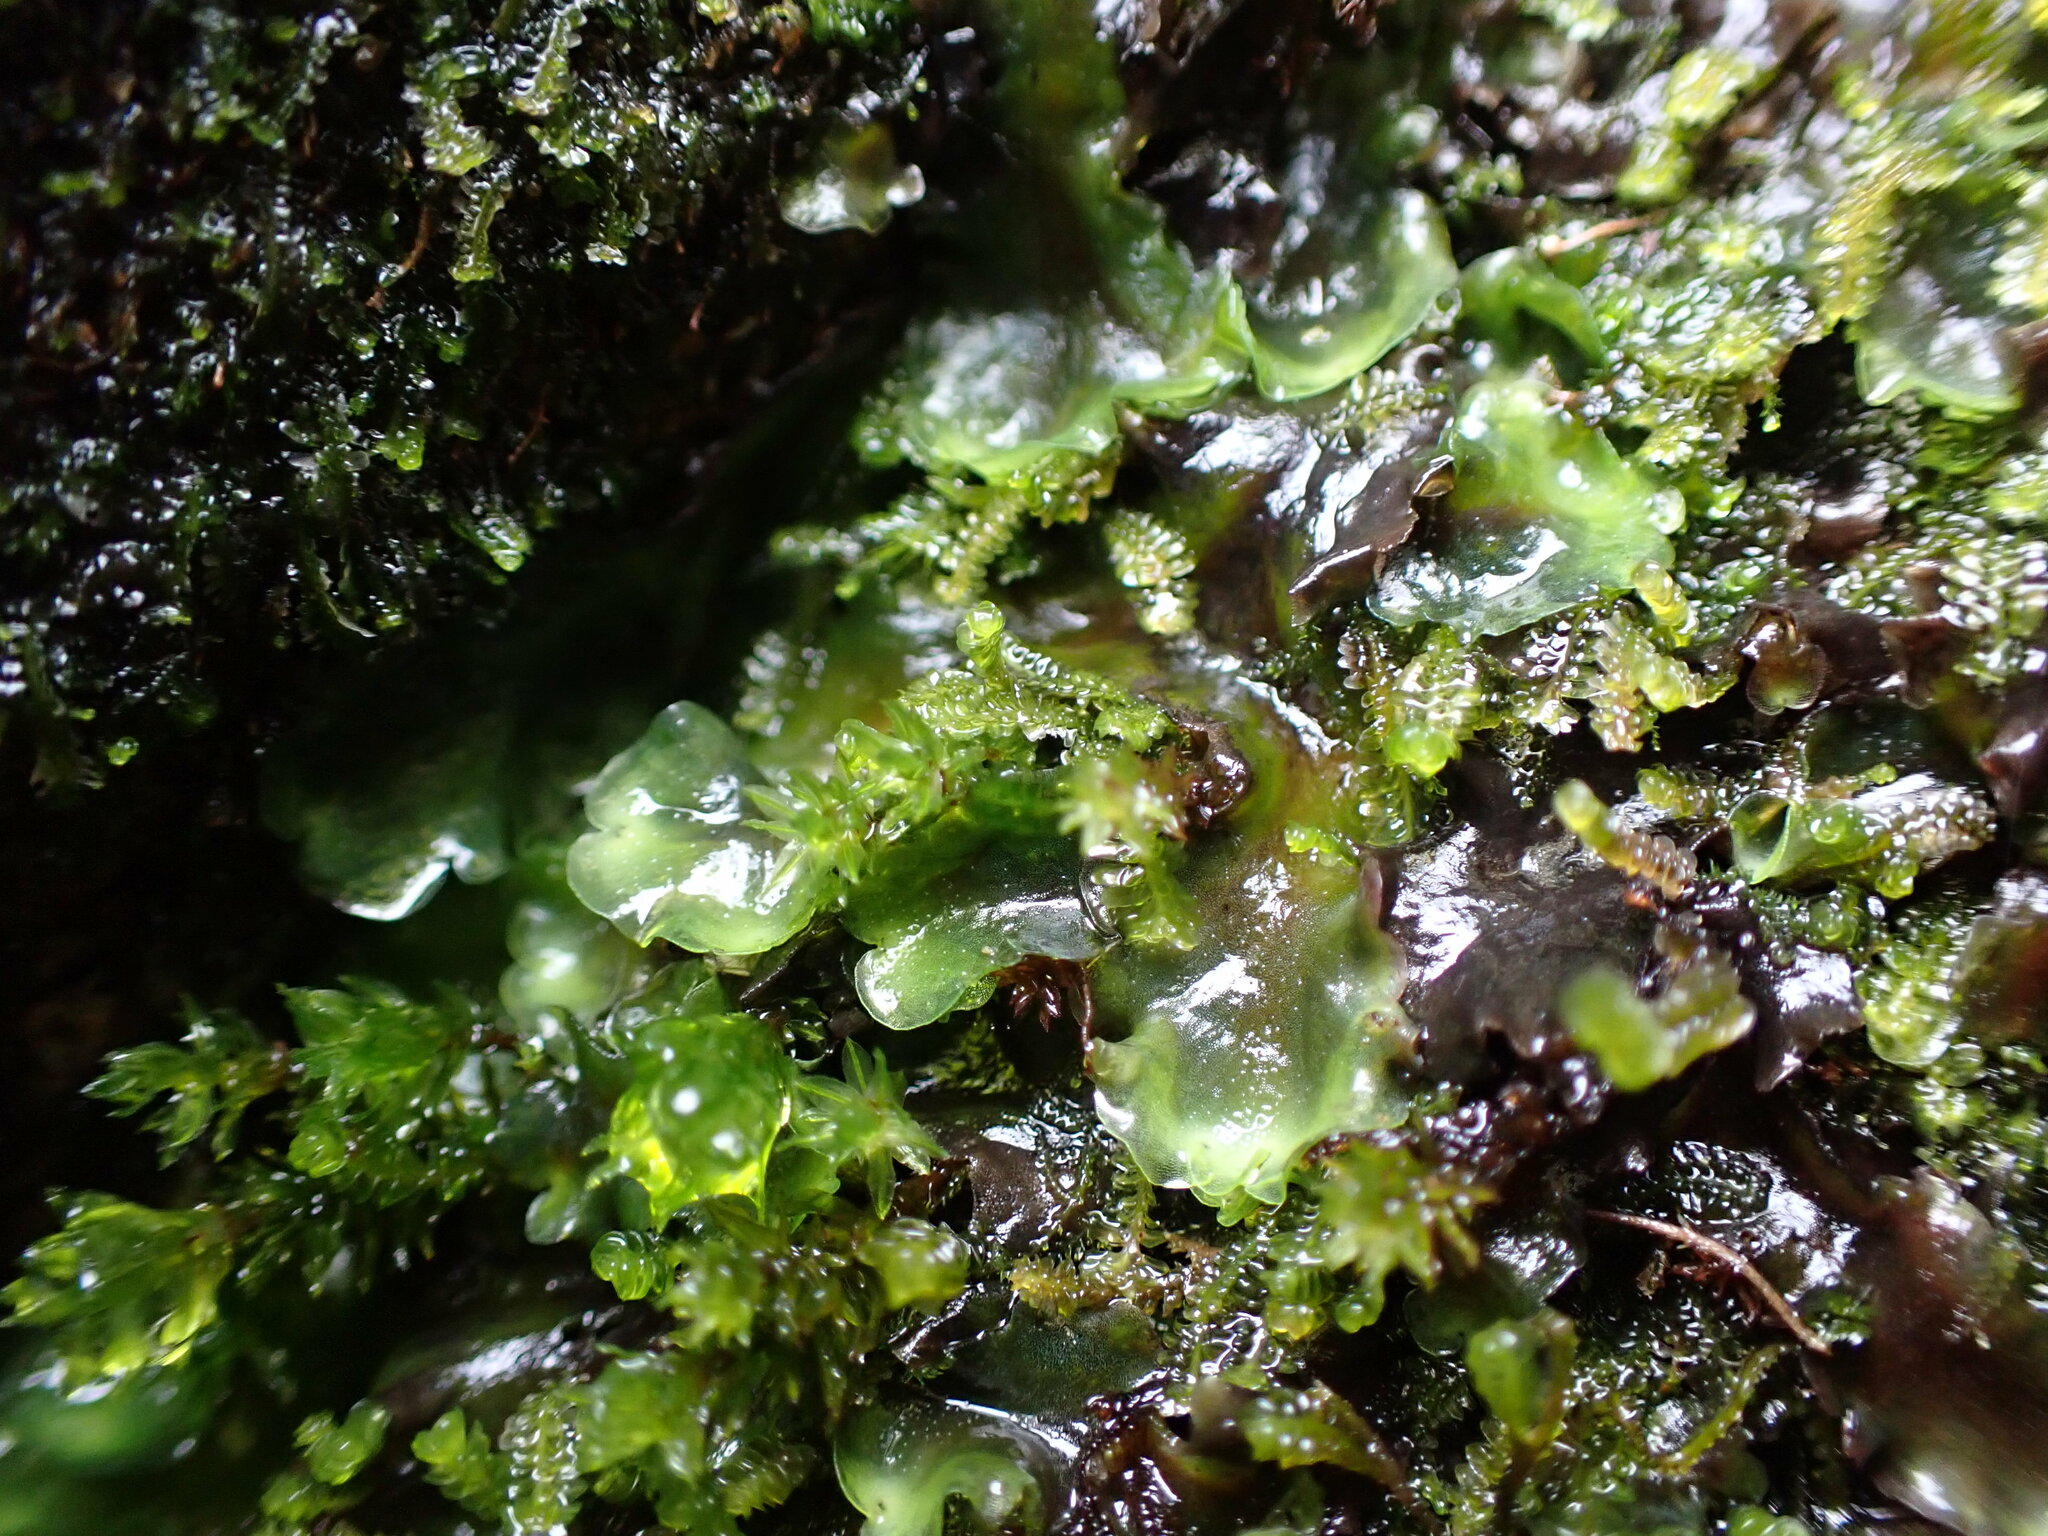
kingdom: Plantae
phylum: Marchantiophyta
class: Jungermanniopsida
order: Pelliales
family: Pelliaceae
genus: Pellia
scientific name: Pellia neesiana
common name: Nees  pellia
